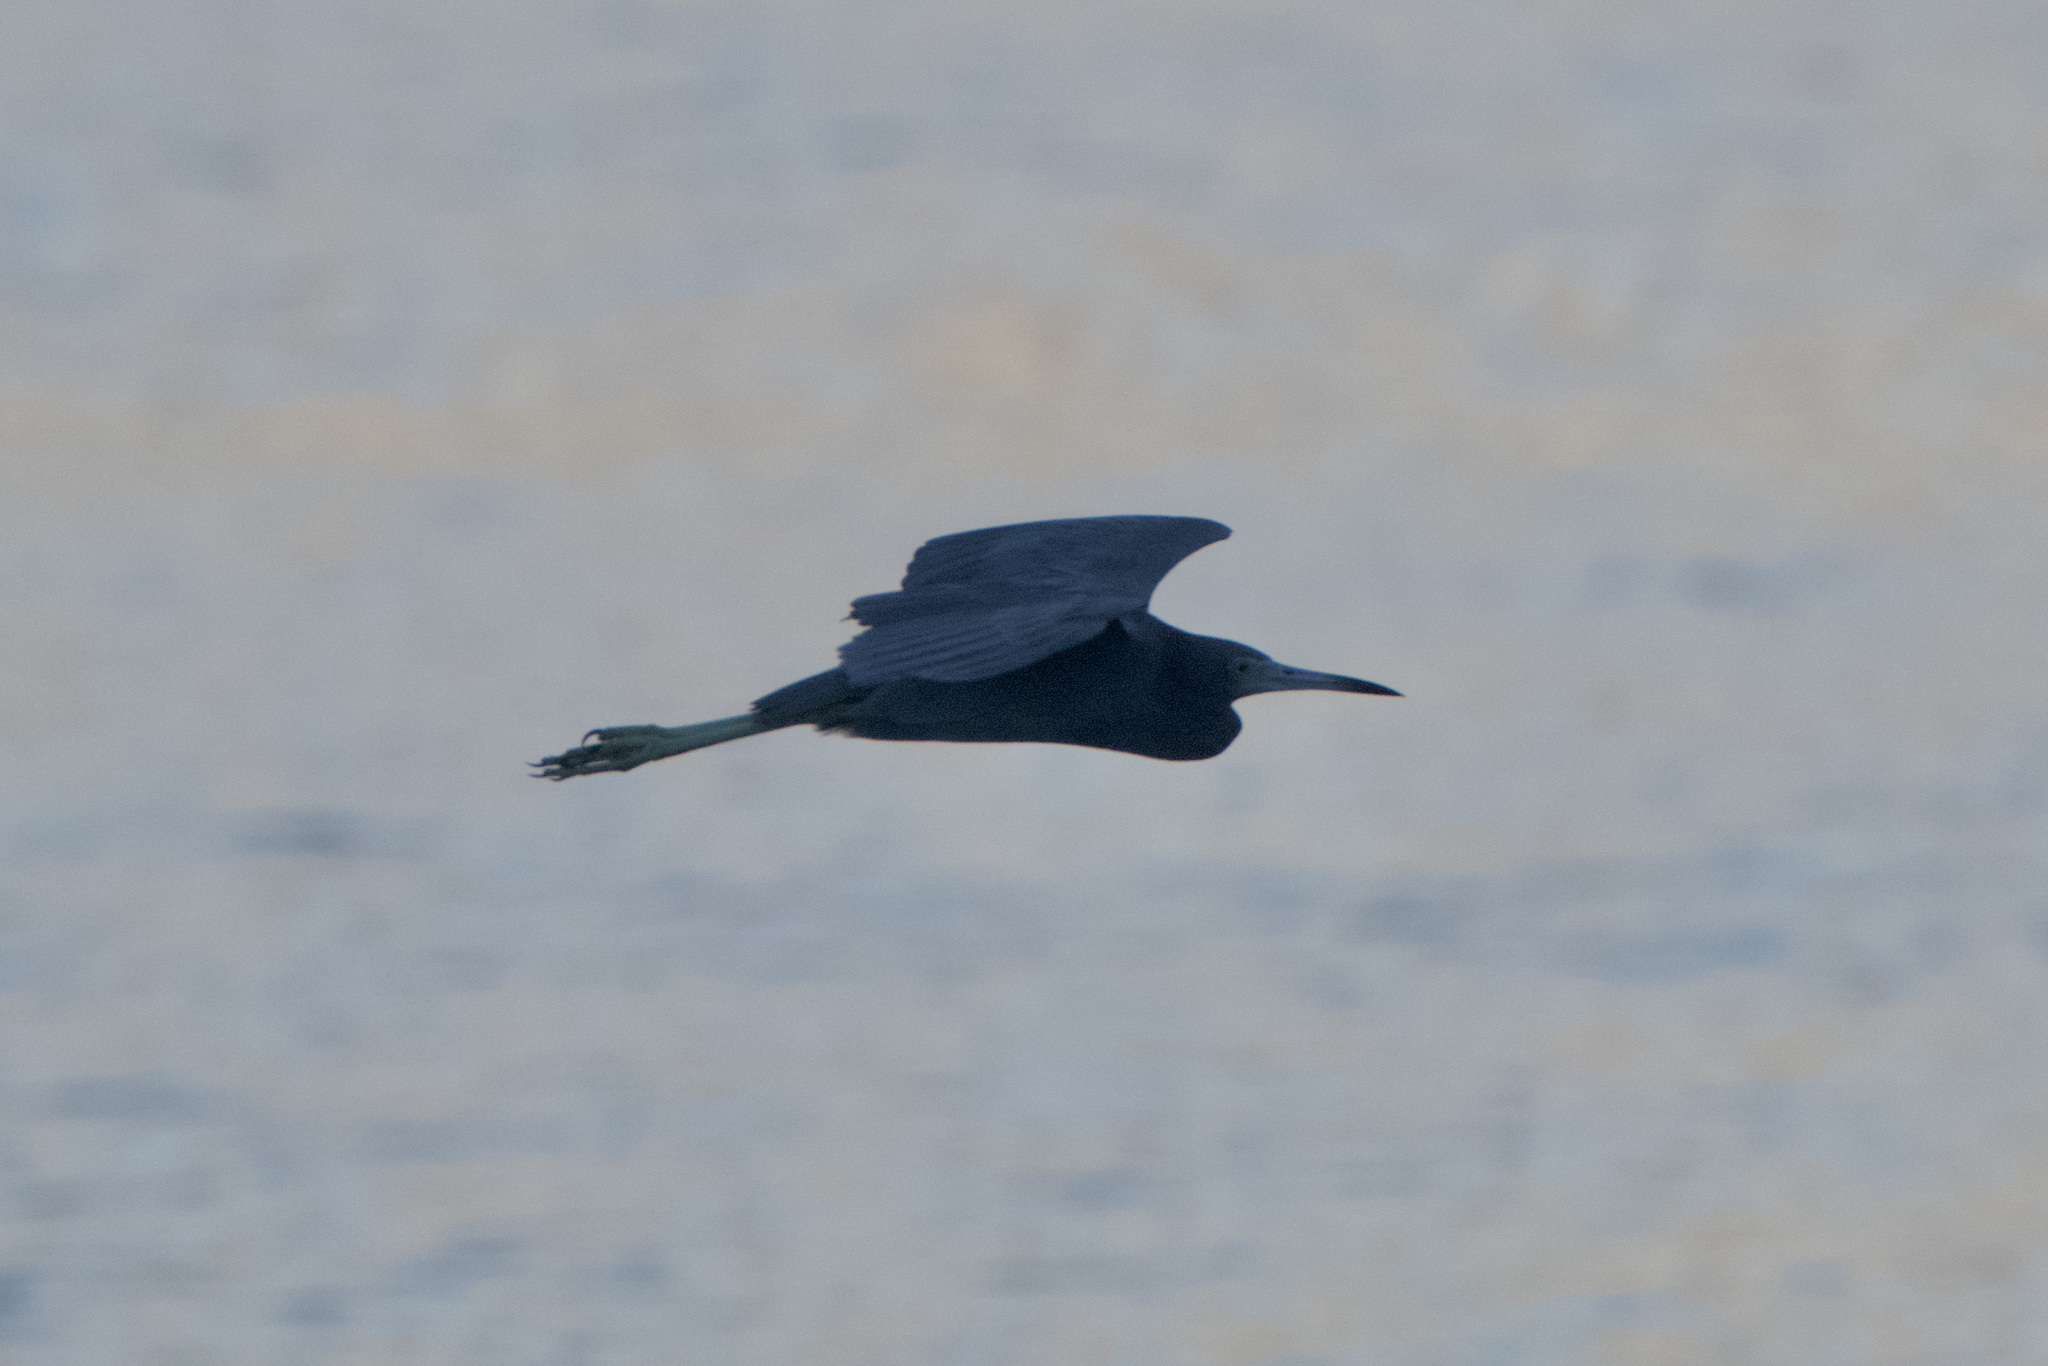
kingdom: Animalia
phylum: Chordata
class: Aves
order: Pelecaniformes
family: Ardeidae
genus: Egretta
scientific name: Egretta caerulea
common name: Little blue heron
